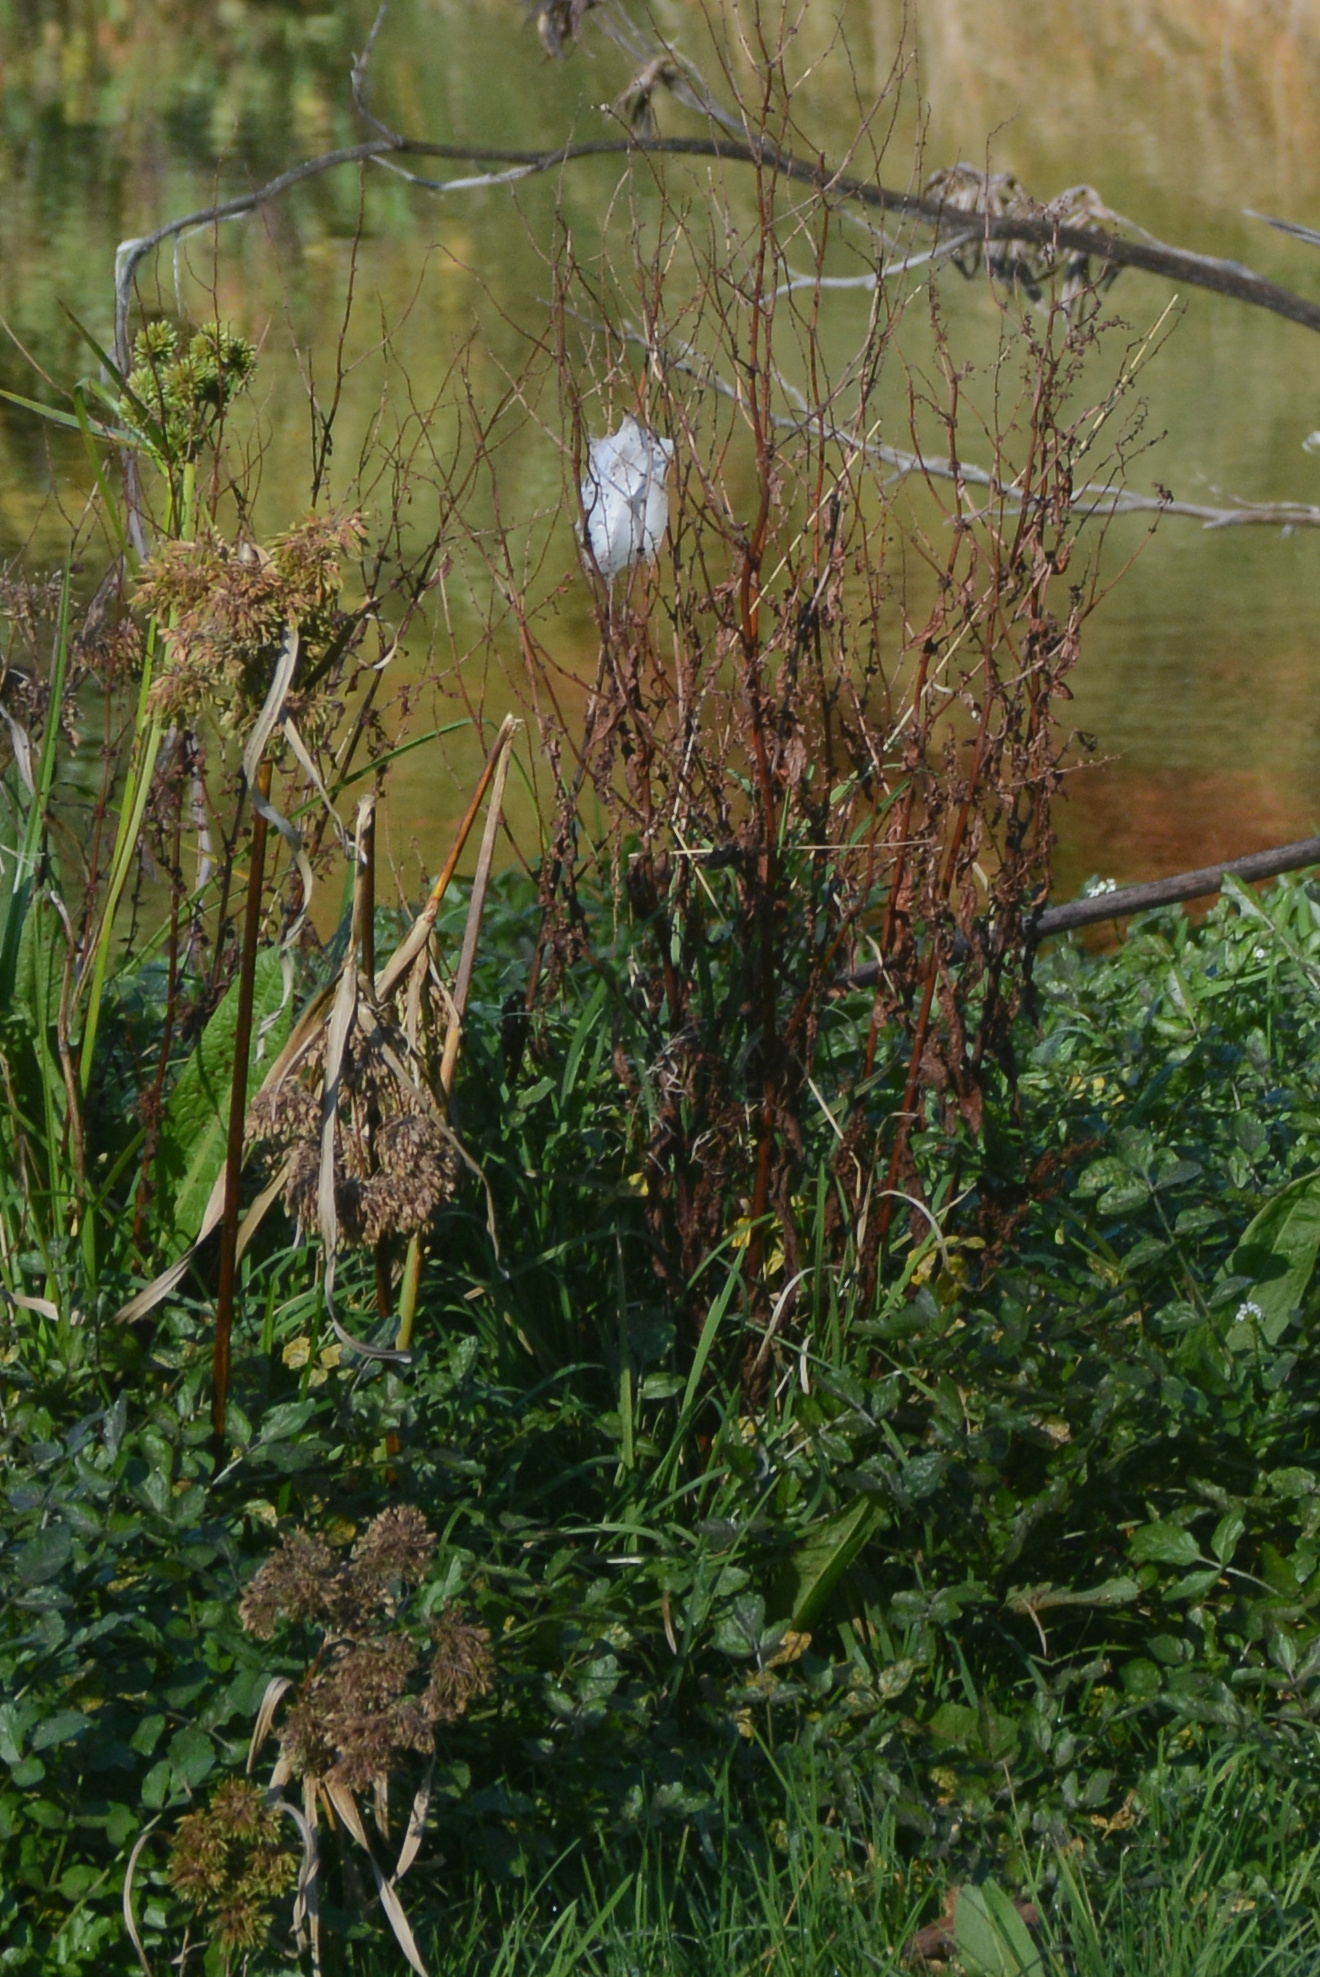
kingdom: Animalia
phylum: Arthropoda
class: Arachnida
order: Araneae
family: Pisauridae
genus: Dolomedes
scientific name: Dolomedes minor
